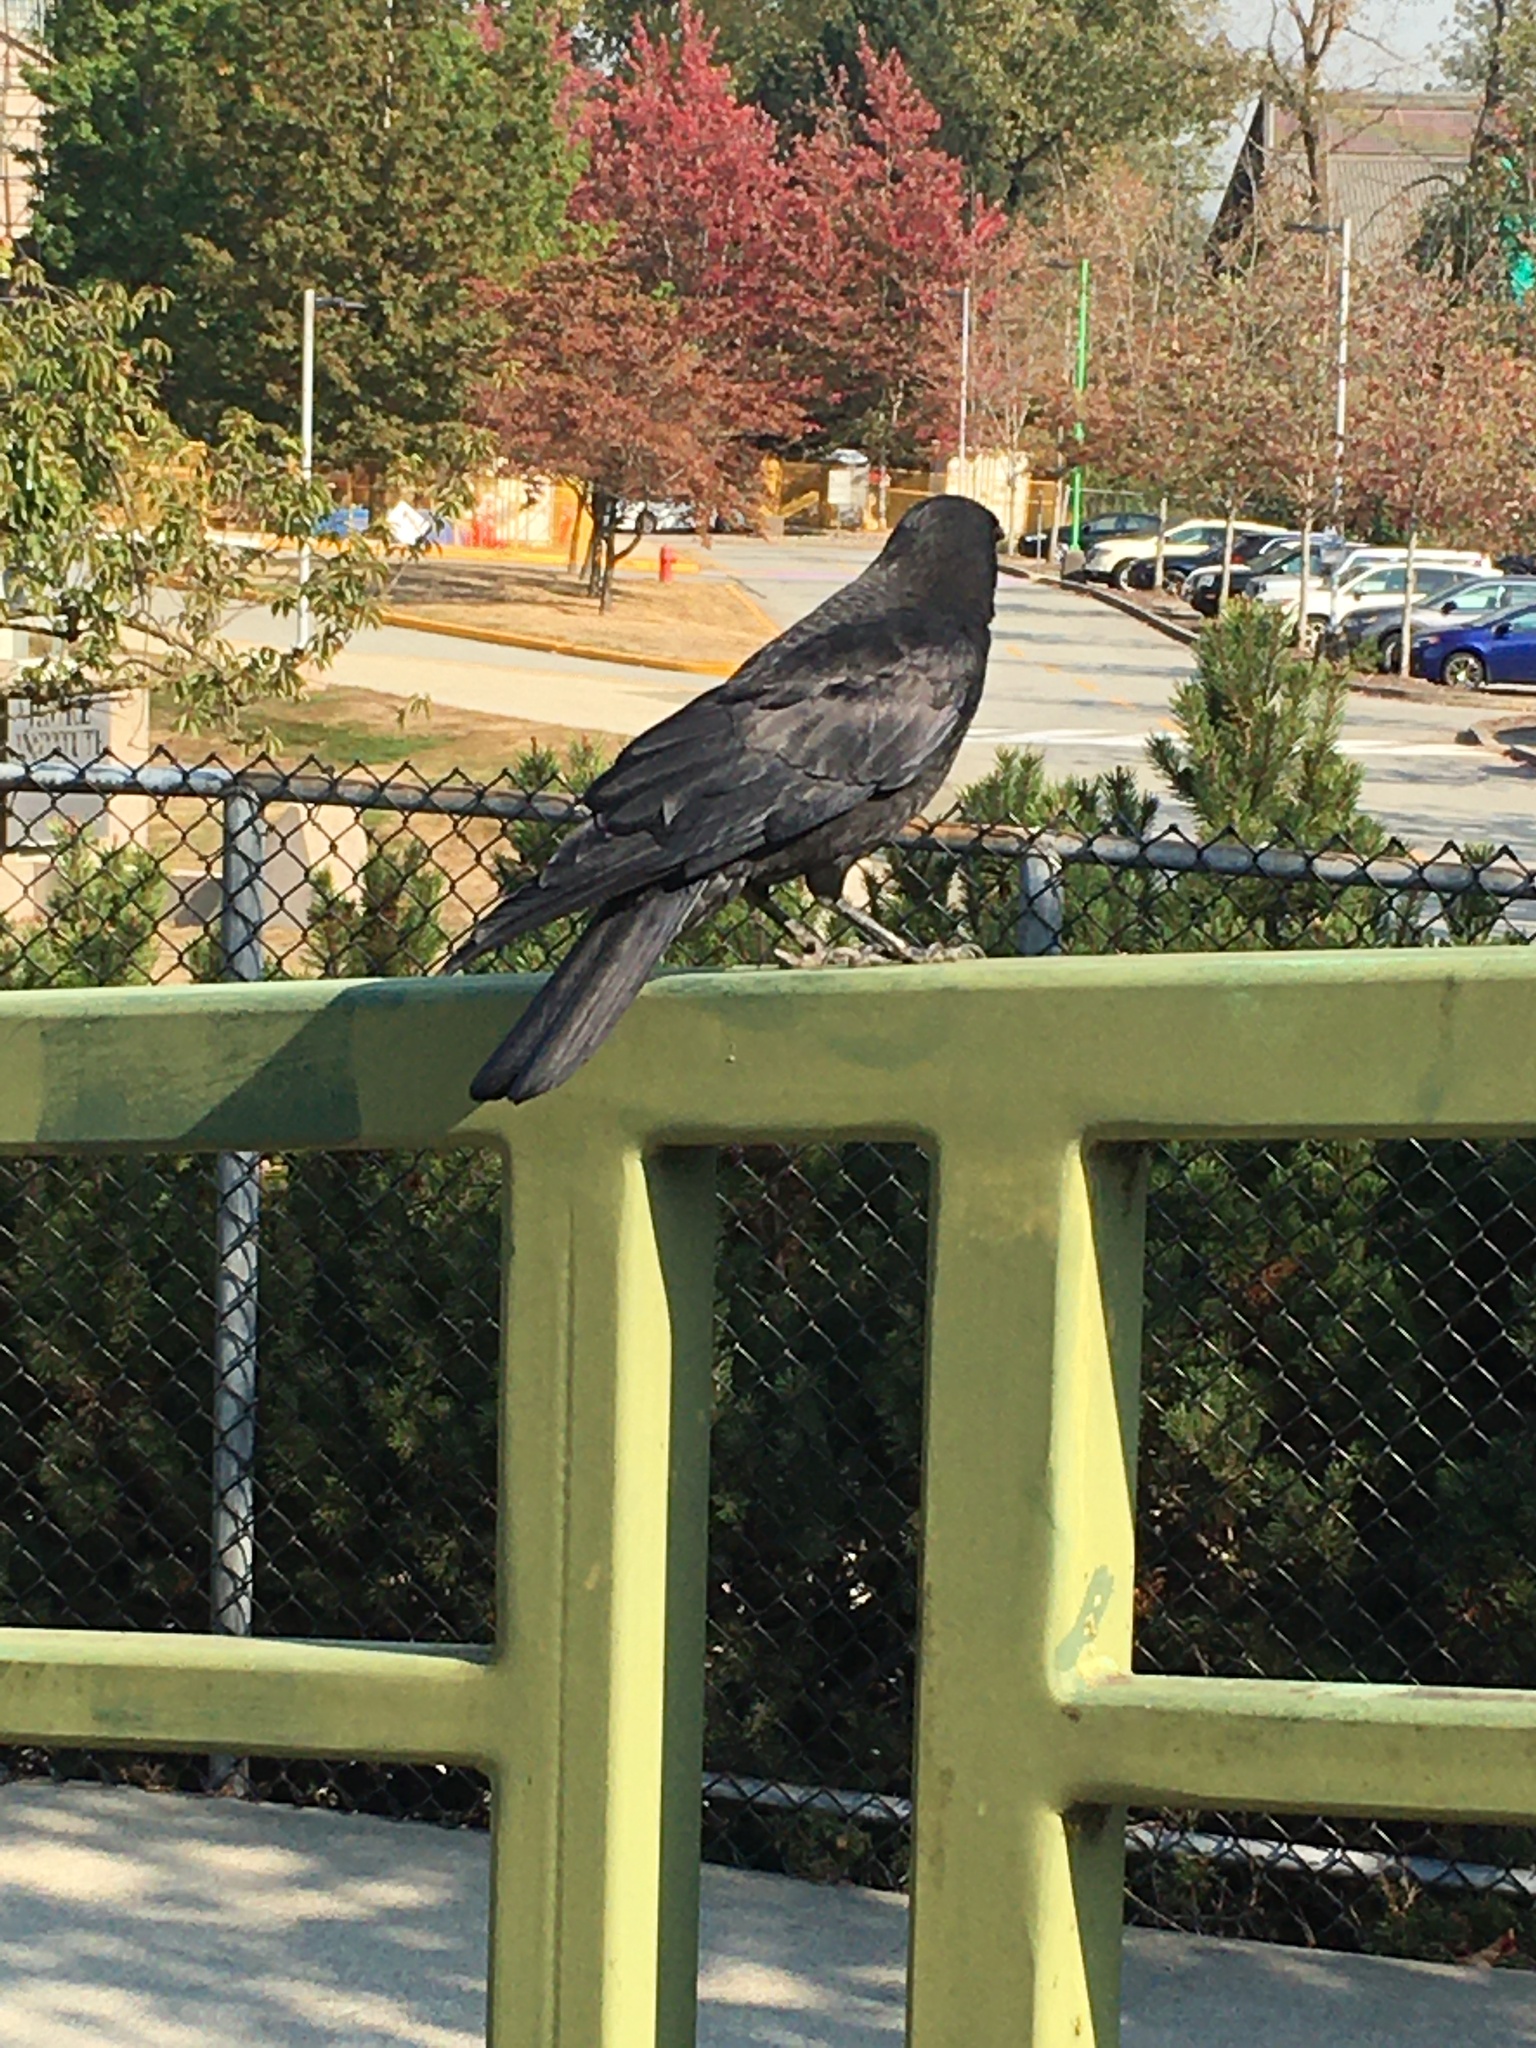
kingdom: Animalia
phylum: Chordata
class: Aves
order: Passeriformes
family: Corvidae
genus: Corvus
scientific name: Corvus brachyrhynchos
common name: American crow
